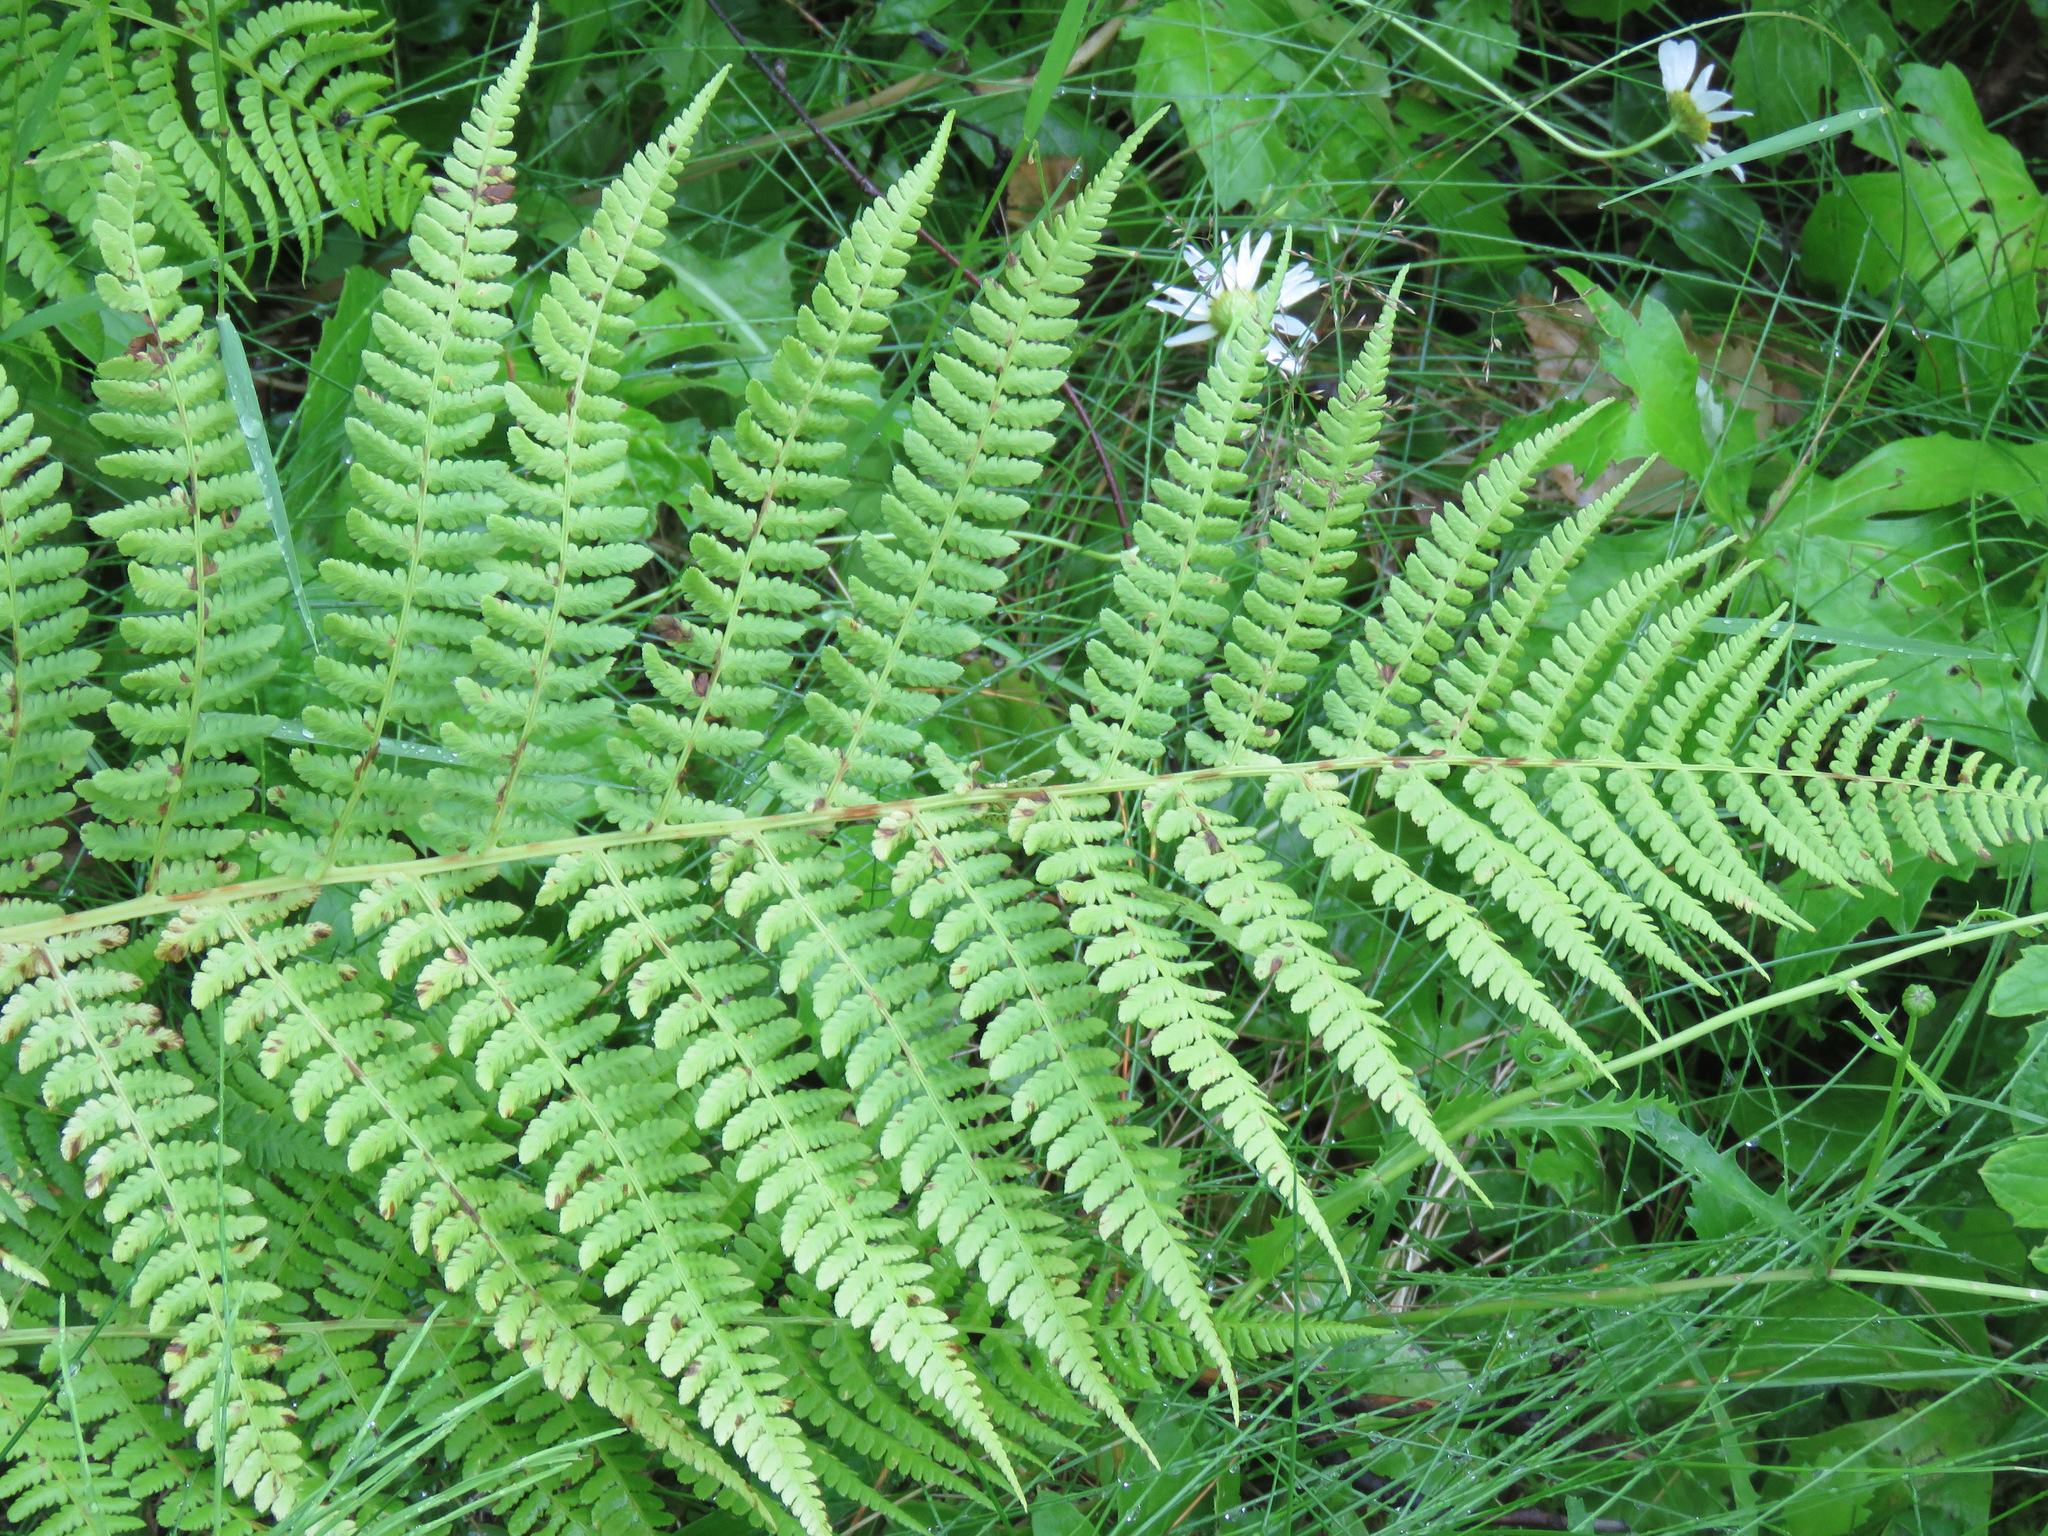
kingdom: Plantae
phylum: Tracheophyta
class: Polypodiopsida
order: Polypodiales
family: Athyriaceae
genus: Athyrium
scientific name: Athyrium filix-femina
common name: Lady fern
